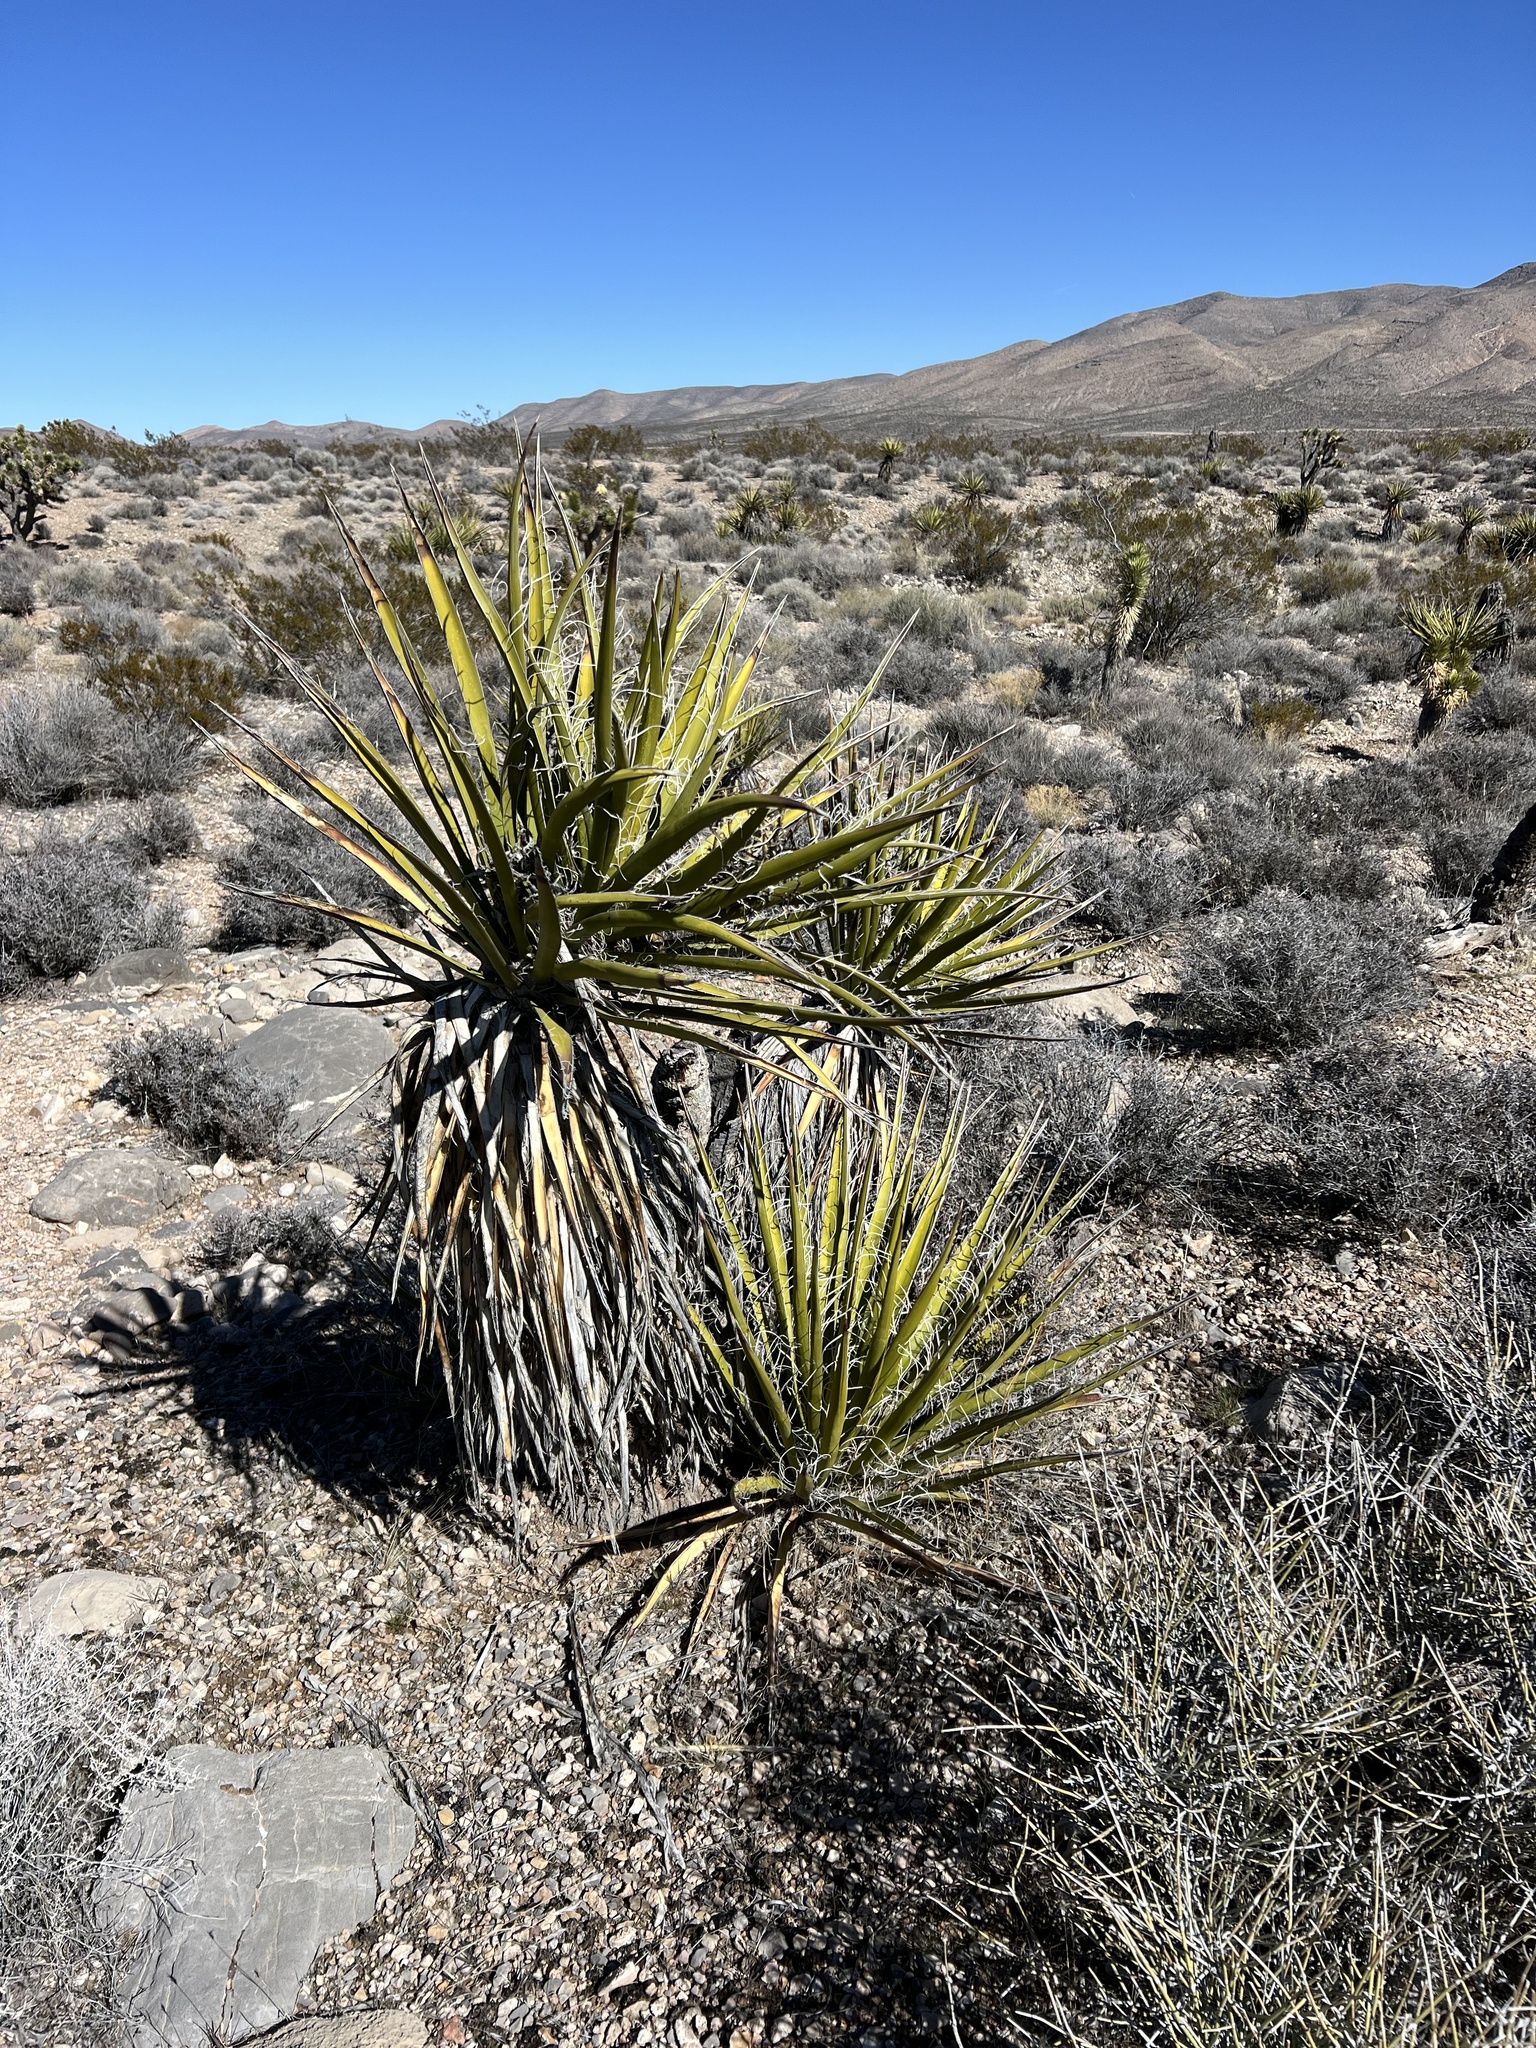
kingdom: Plantae
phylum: Tracheophyta
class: Liliopsida
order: Asparagales
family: Asparagaceae
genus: Yucca
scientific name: Yucca schidigera
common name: Mojave yucca
